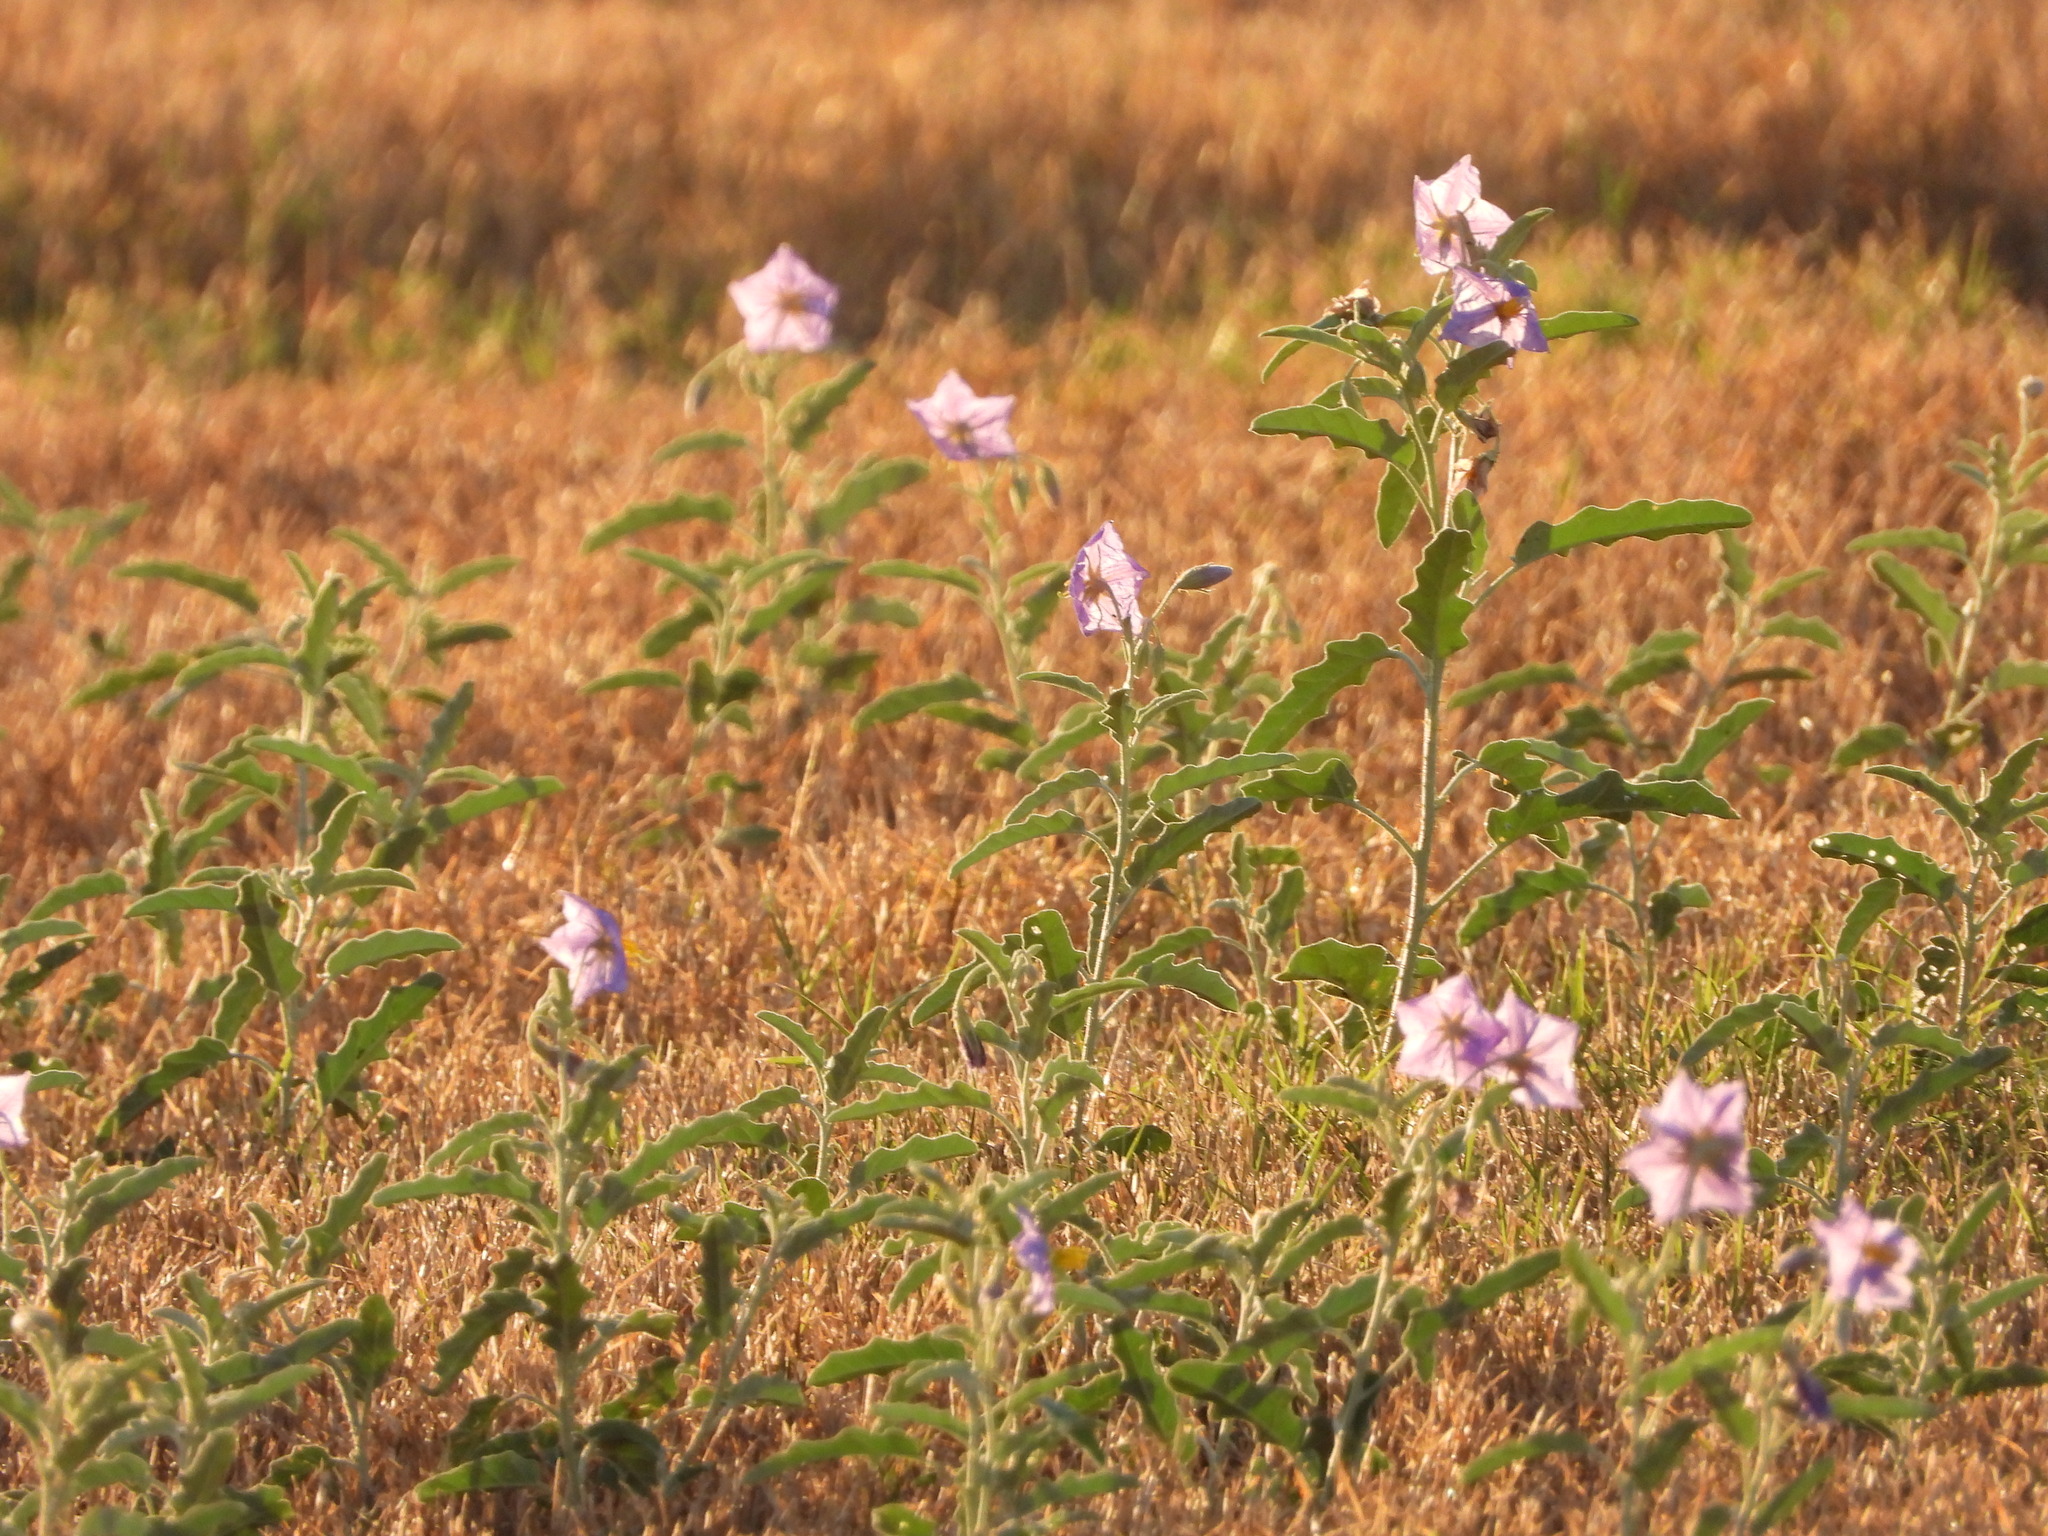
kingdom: Plantae
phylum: Tracheophyta
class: Magnoliopsida
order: Solanales
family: Solanaceae
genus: Solanum
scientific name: Solanum elaeagnifolium
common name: Silverleaf nightshade
